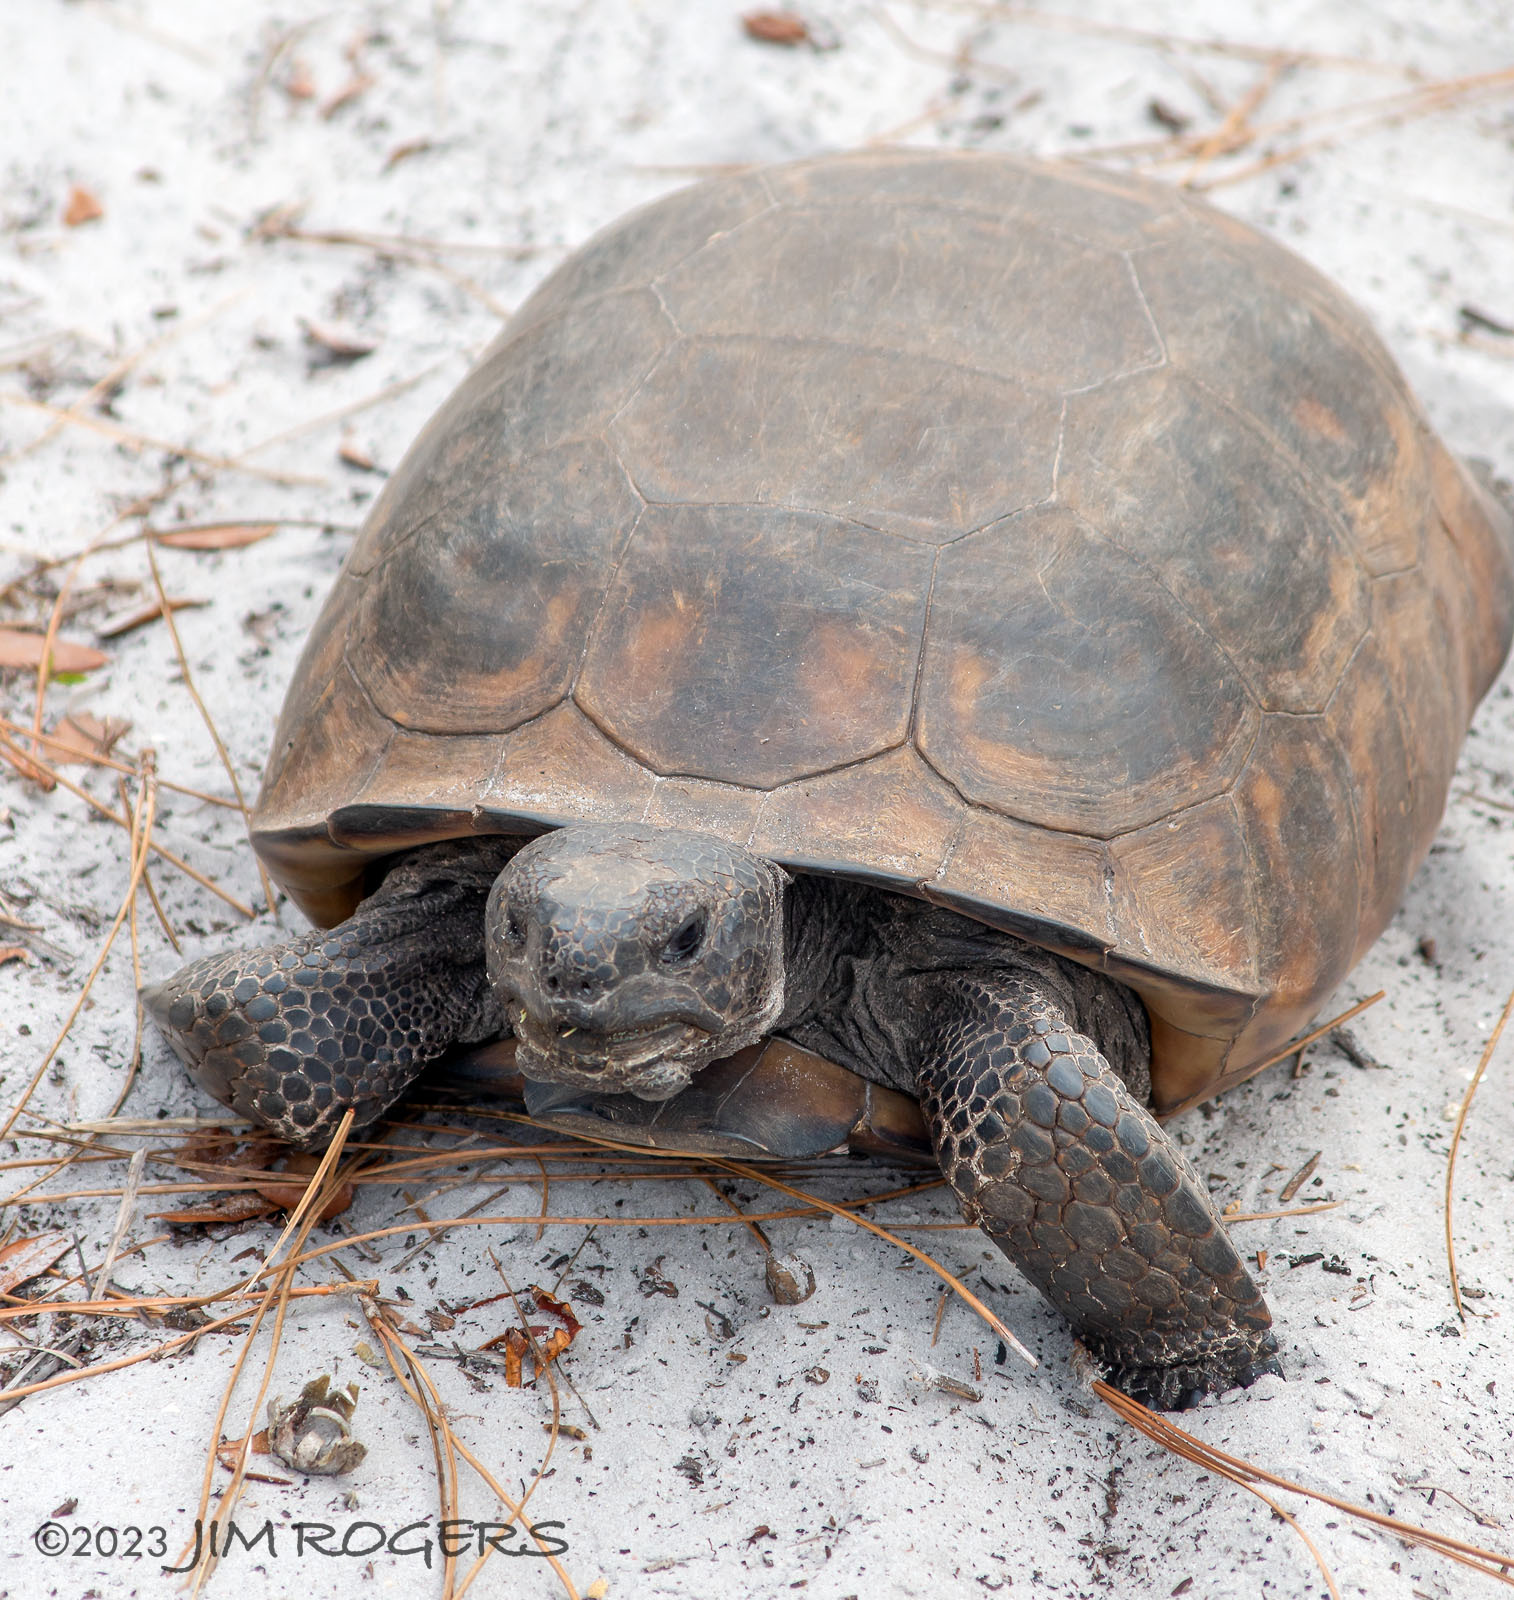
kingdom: Animalia
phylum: Chordata
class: Testudines
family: Testudinidae
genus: Gopherus
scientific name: Gopherus polyphemus
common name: Florida gopher tortoise
